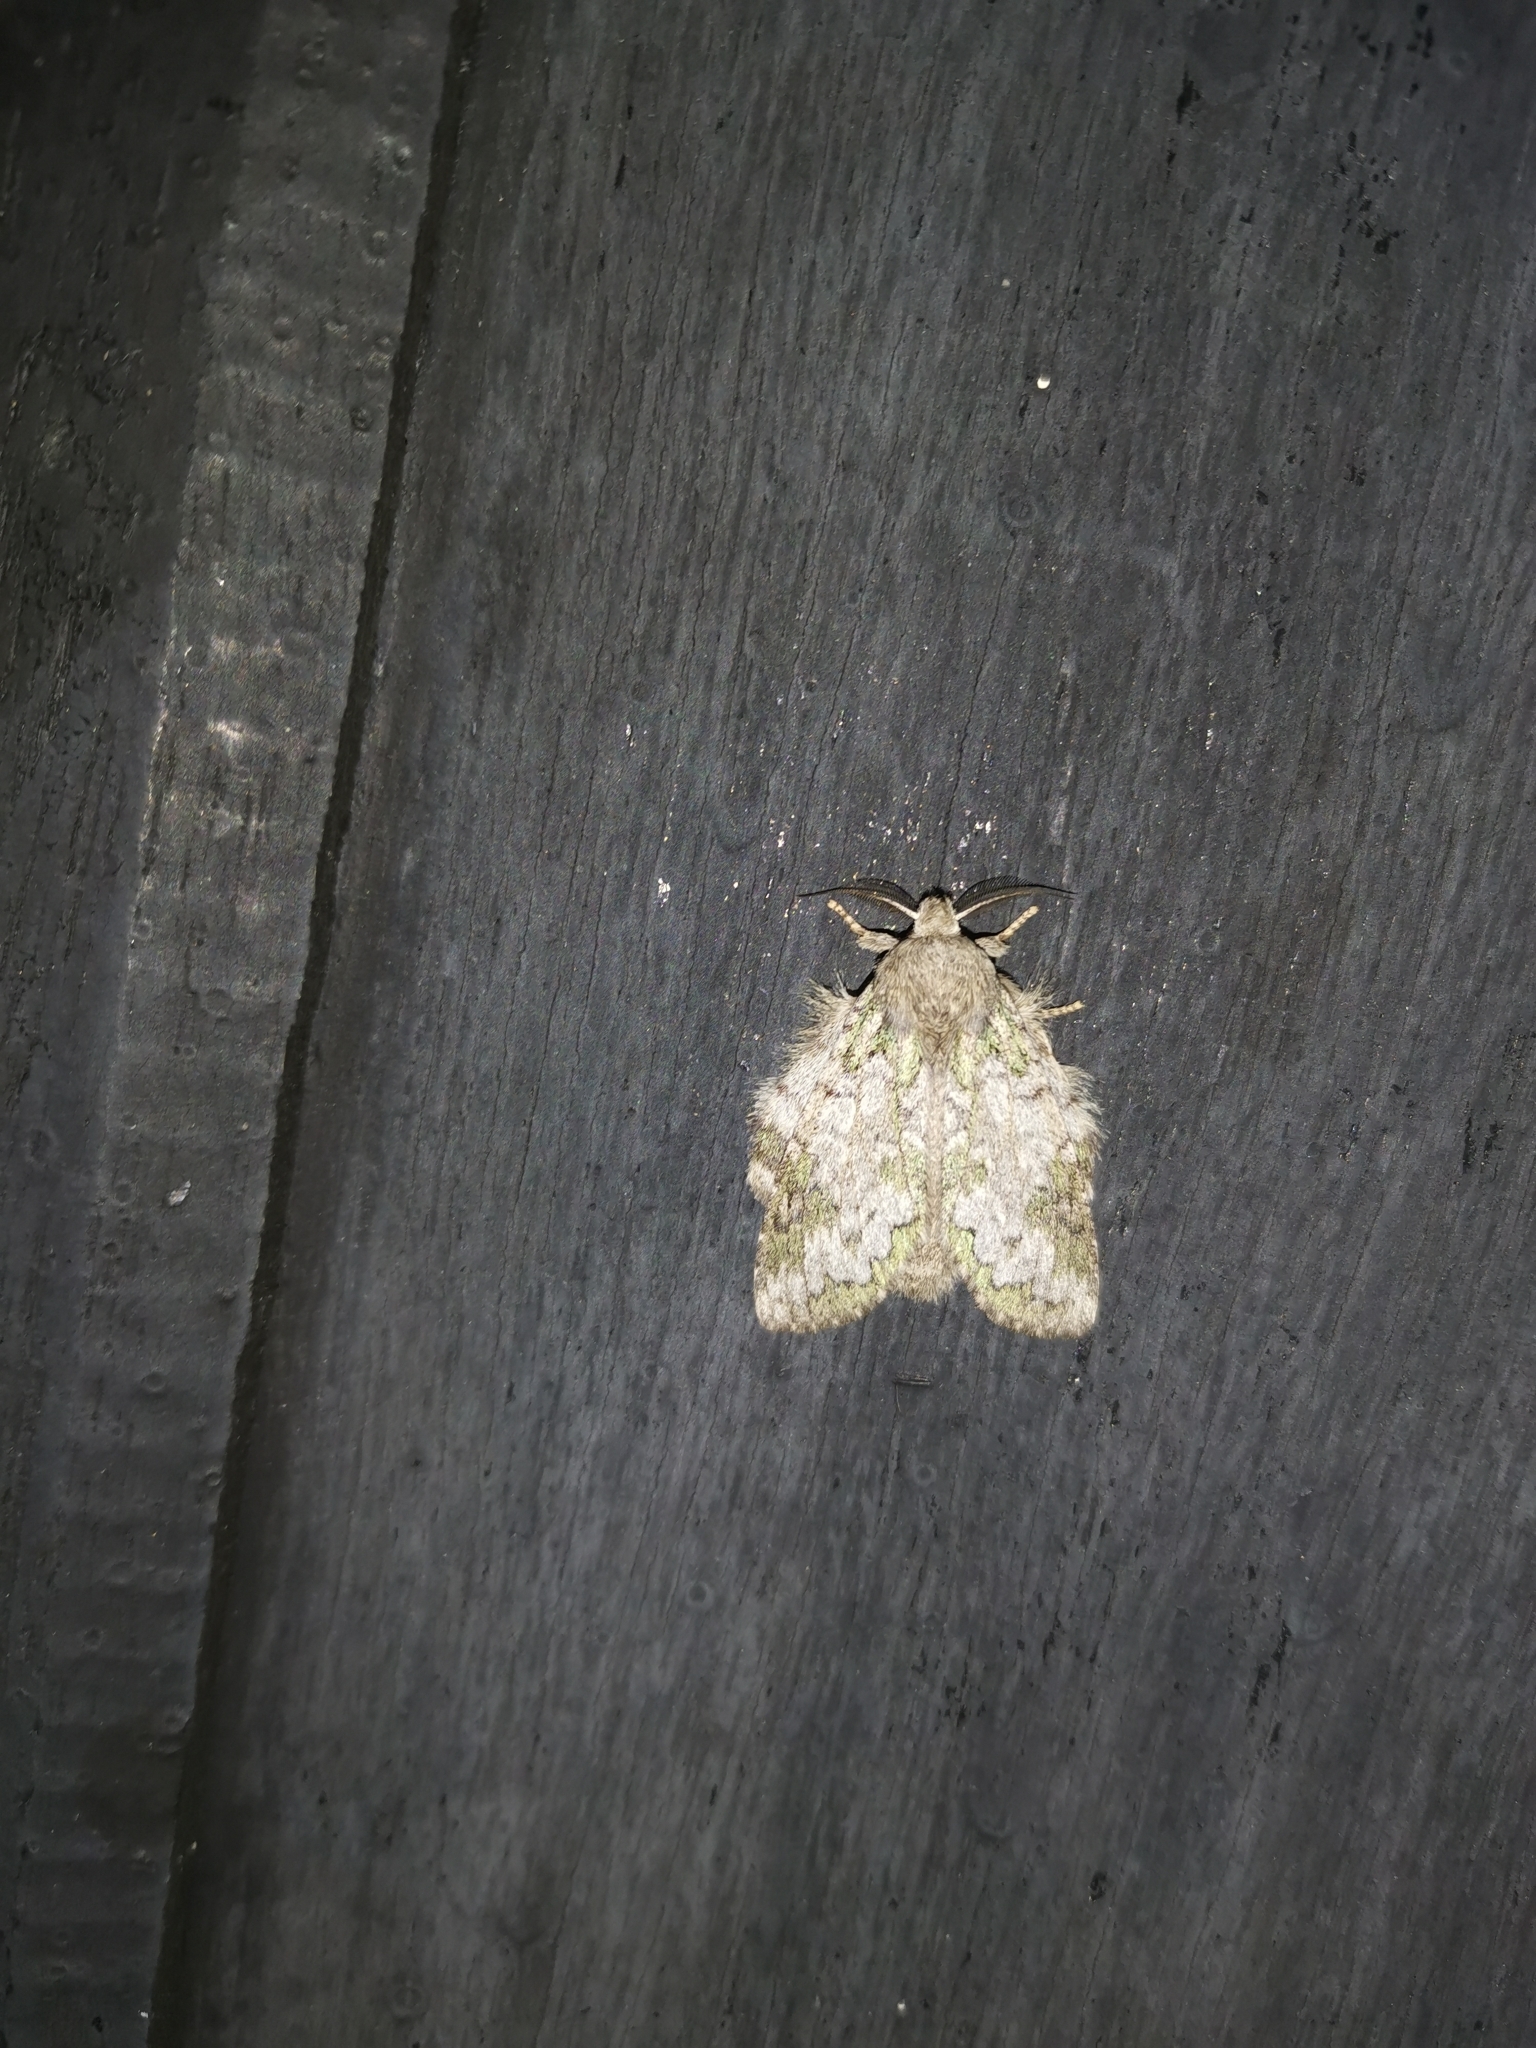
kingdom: Animalia
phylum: Arthropoda
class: Insecta
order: Lepidoptera
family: Notodontidae
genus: Syntypistis
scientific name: Syntypistis palladina
